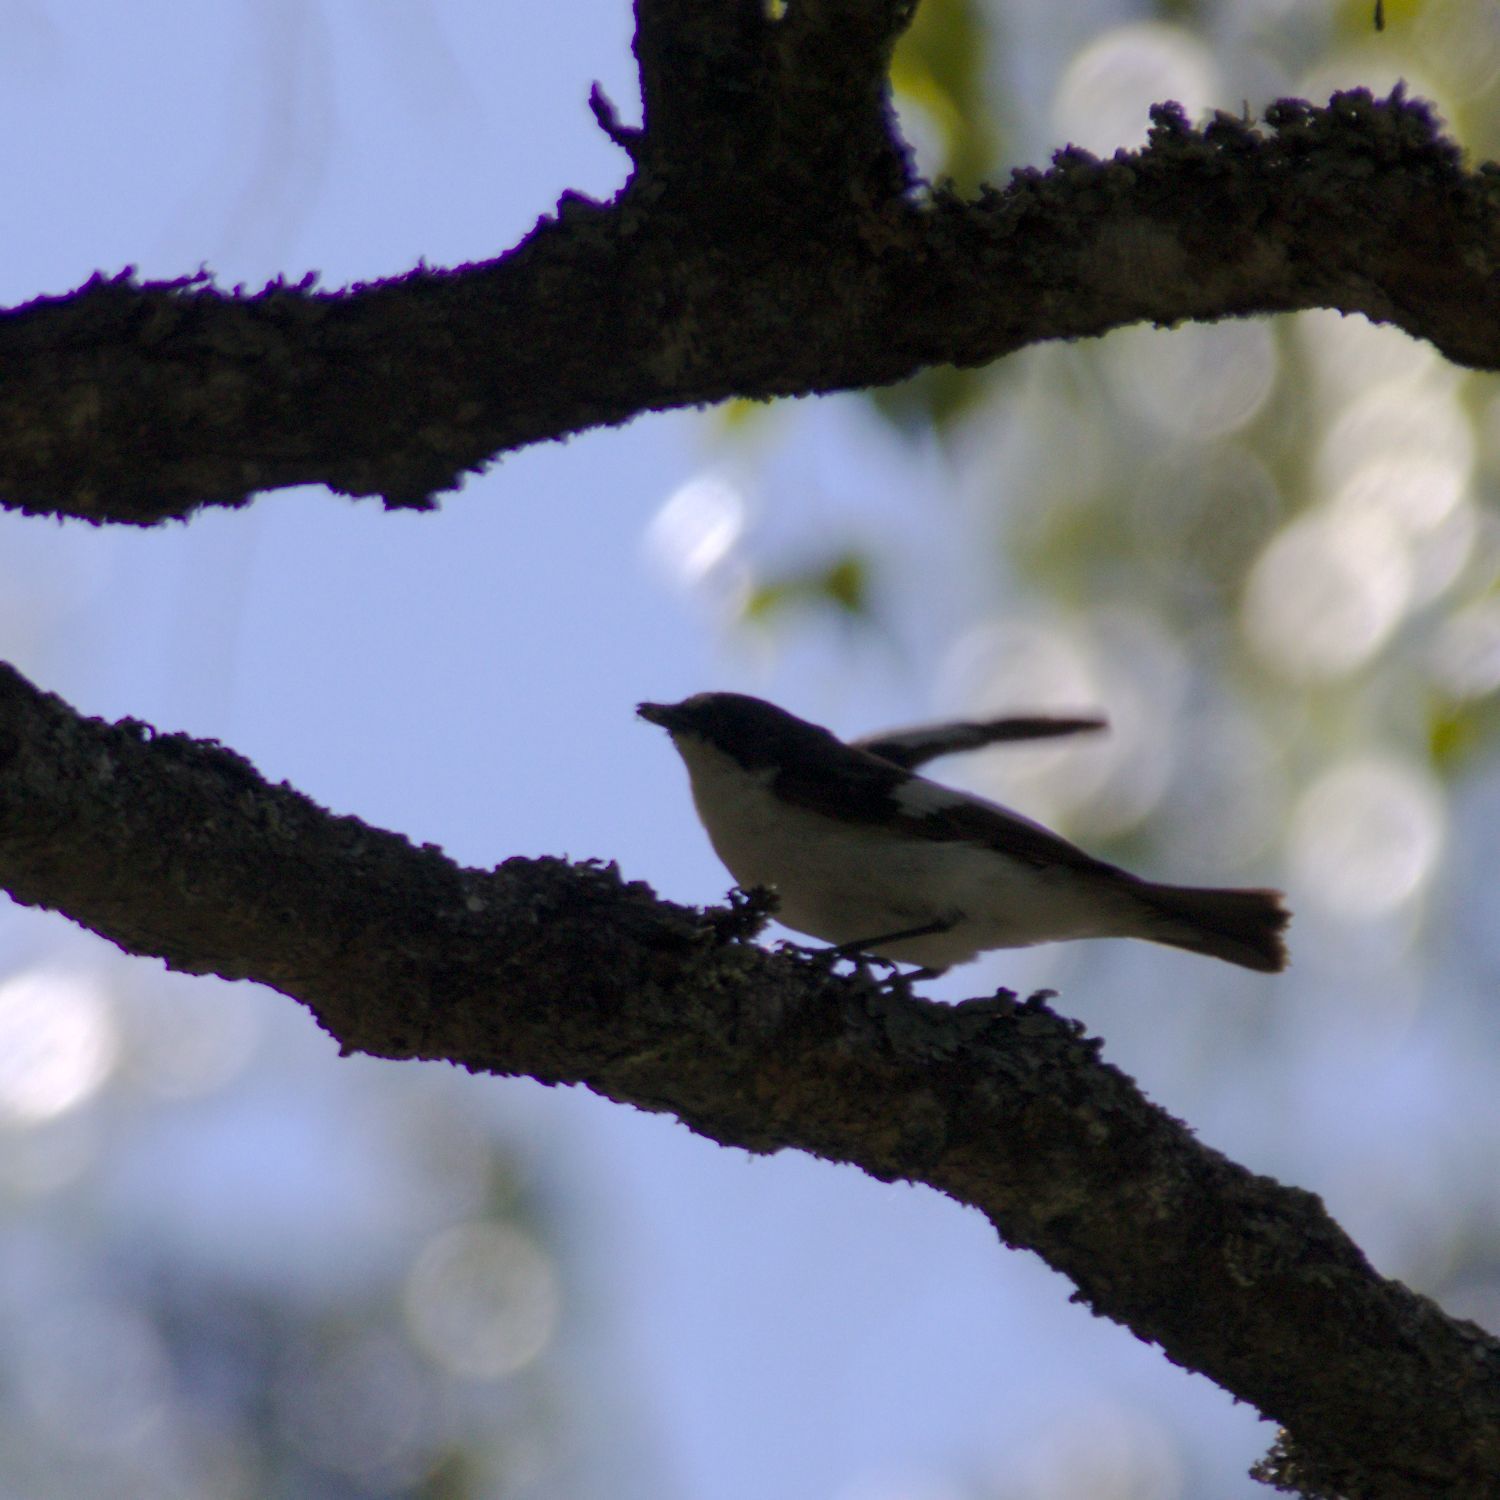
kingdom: Animalia
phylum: Chordata
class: Aves
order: Passeriformes
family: Muscicapidae
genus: Ficedula
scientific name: Ficedula hypoleuca
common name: European pied flycatcher
